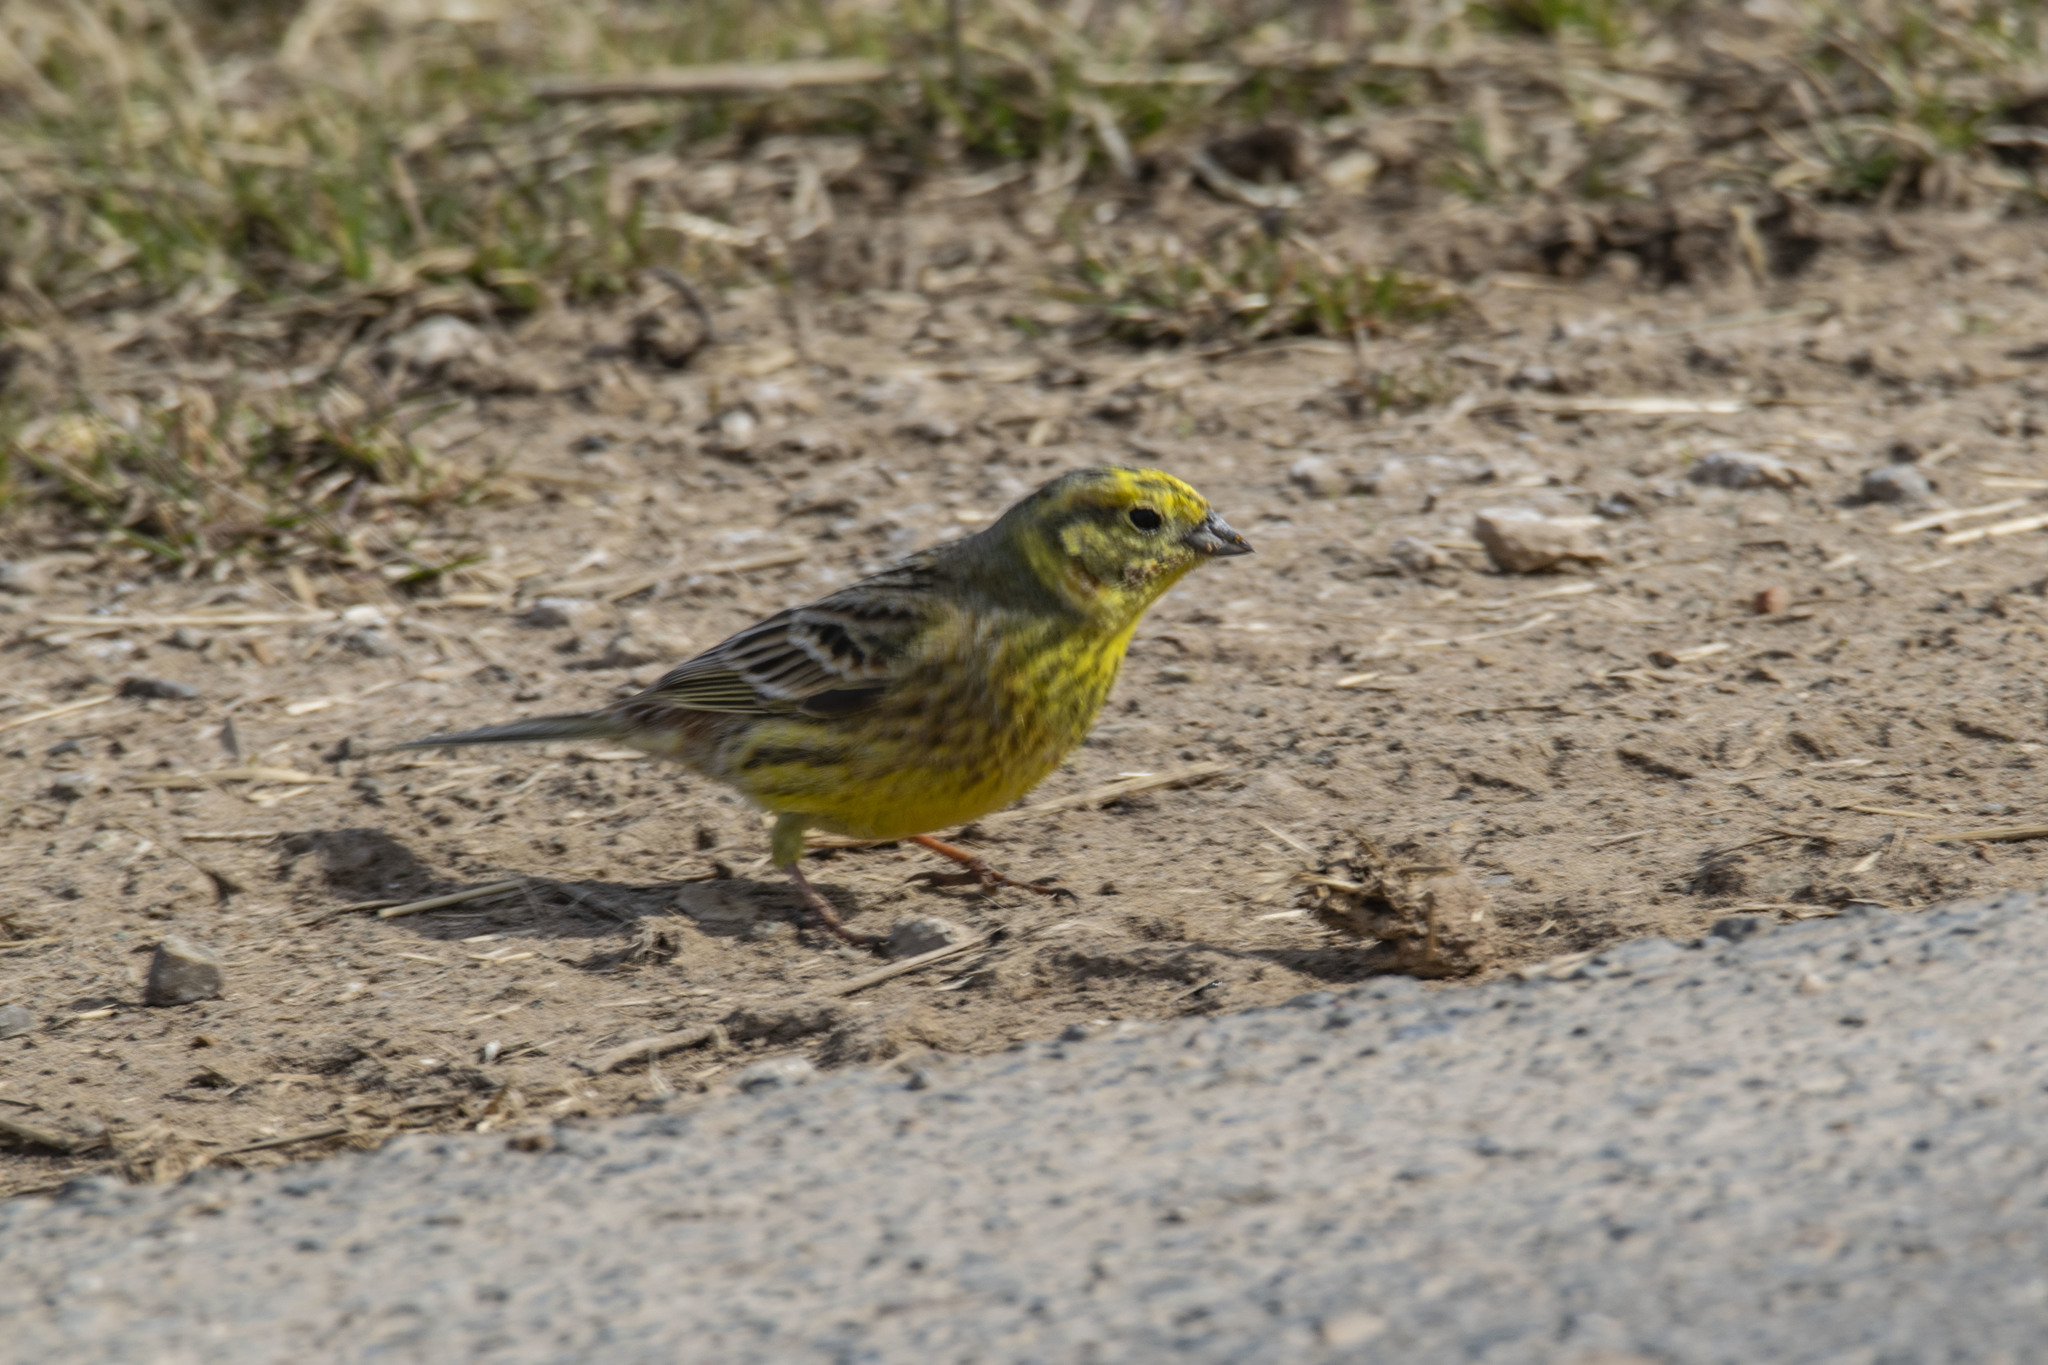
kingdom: Animalia
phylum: Chordata
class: Aves
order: Passeriformes
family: Emberizidae
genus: Emberiza
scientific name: Emberiza citrinella
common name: Yellowhammer
